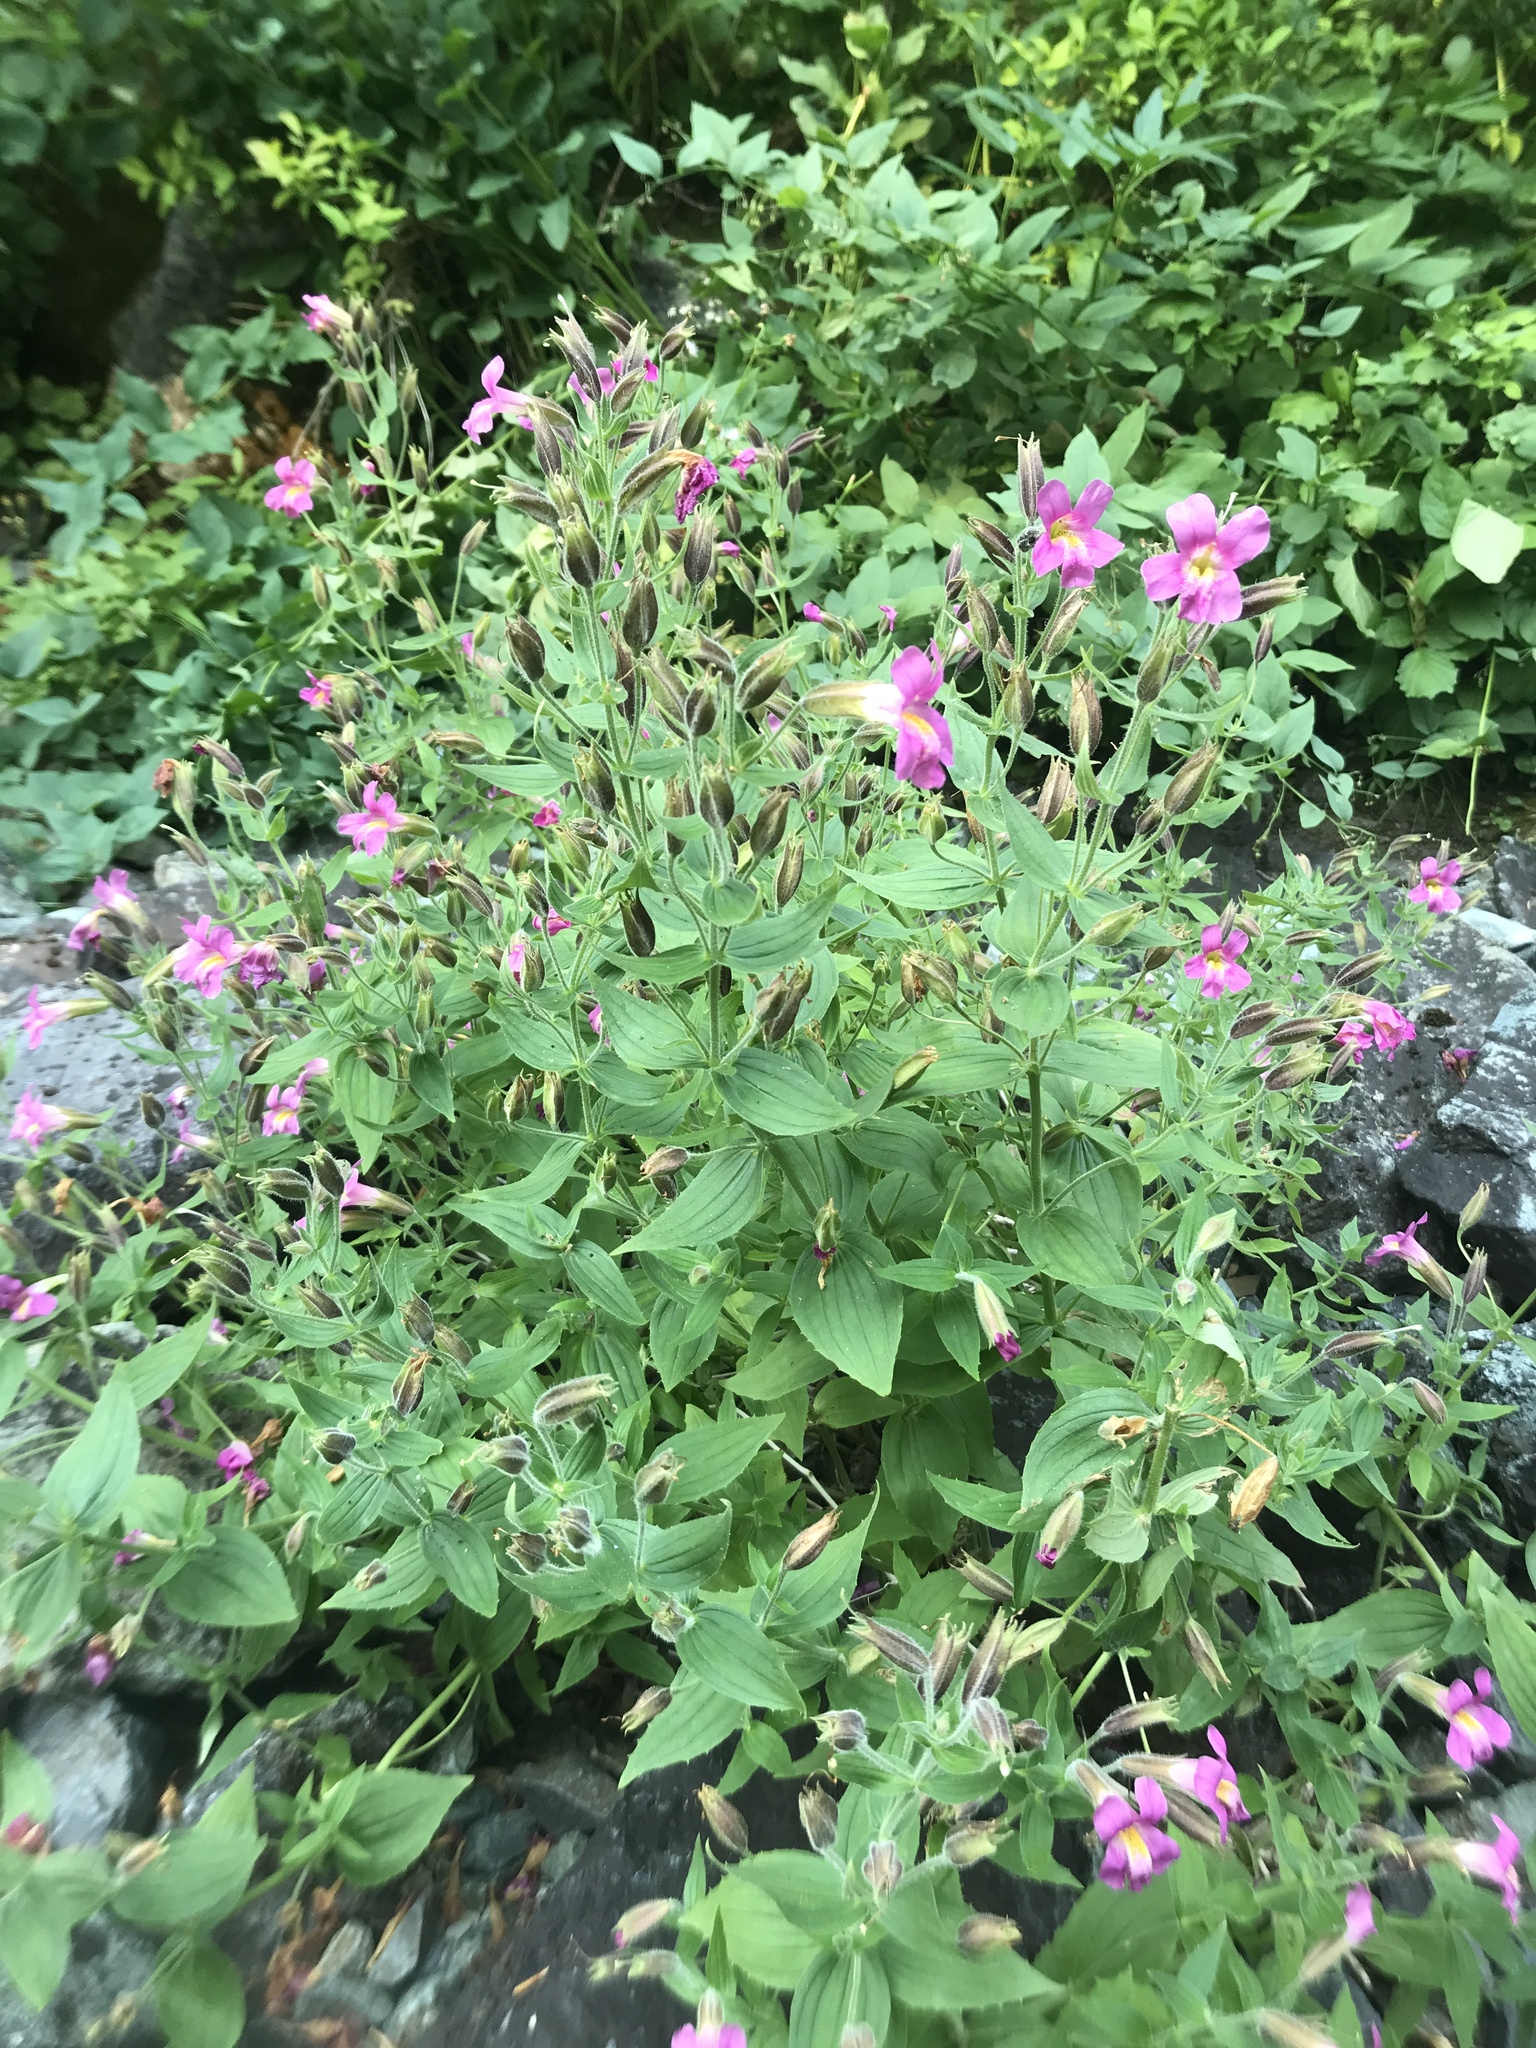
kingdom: Plantae
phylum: Tracheophyta
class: Magnoliopsida
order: Lamiales
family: Phrymaceae
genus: Erythranthe
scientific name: Erythranthe lewisii
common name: Lewis's monkey-flower
